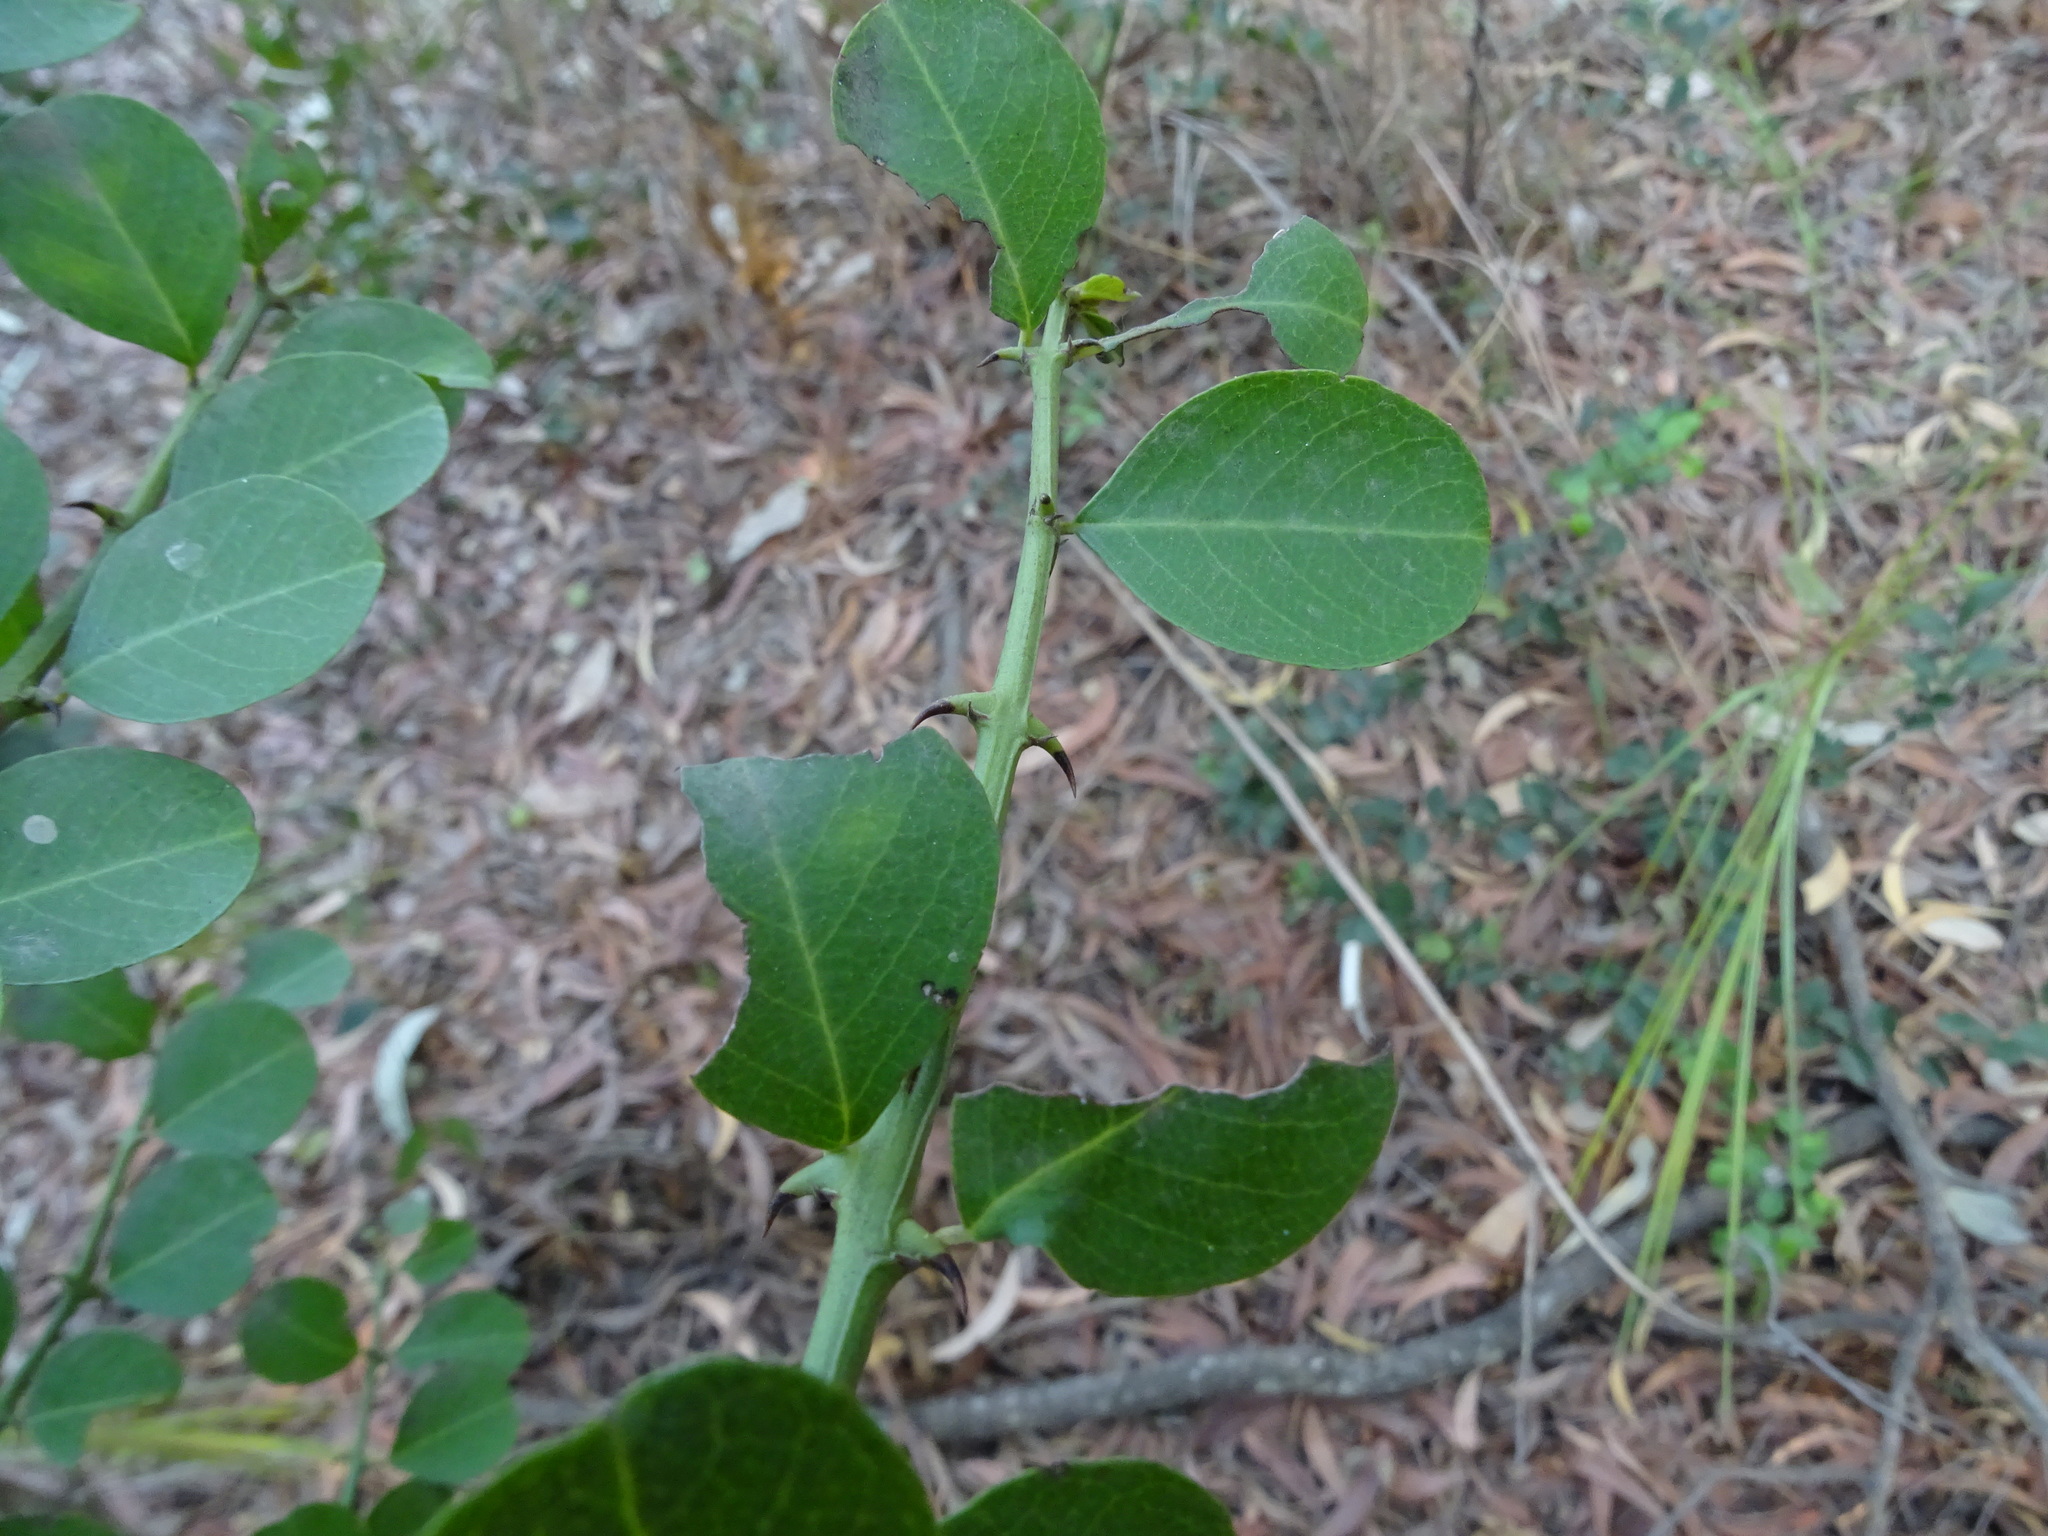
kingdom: Plantae
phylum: Tracheophyta
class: Magnoliopsida
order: Rosales
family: Rhamnaceae
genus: Scutia
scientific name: Scutia myrtina
